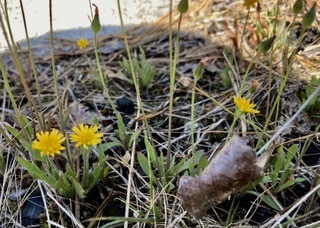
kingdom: Plantae
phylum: Tracheophyta
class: Magnoliopsida
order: Asterales
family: Asteraceae
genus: Krigia
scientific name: Krigia virginica
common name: Virginia dwarf-dandelion
